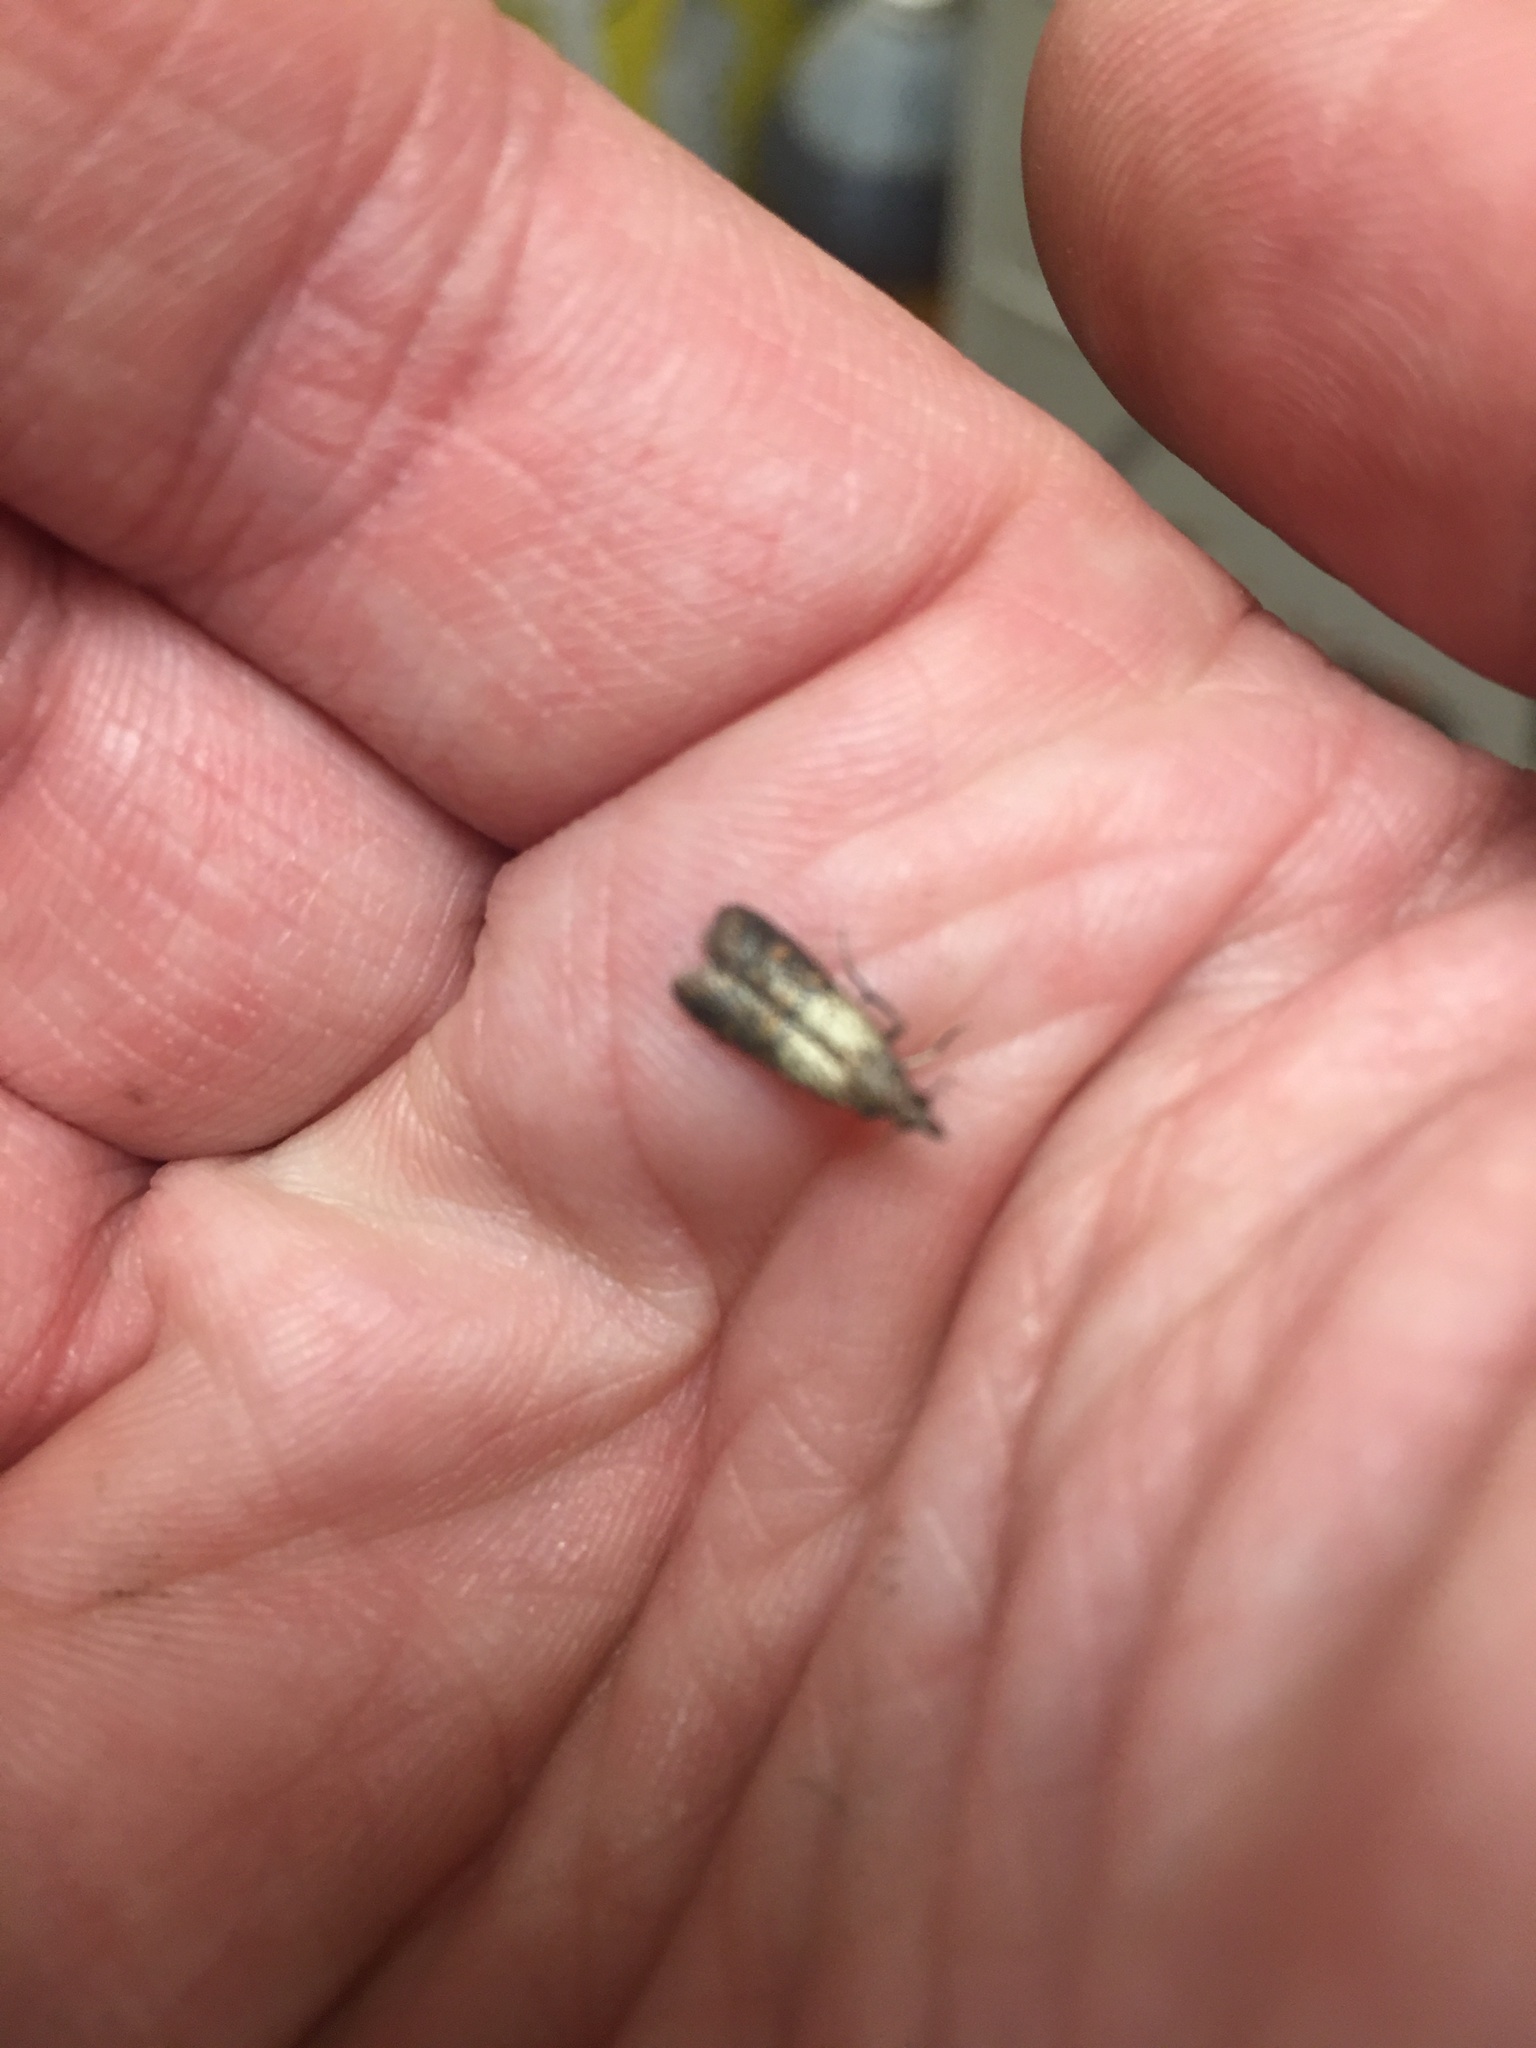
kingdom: Animalia
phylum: Arthropoda
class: Insecta
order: Lepidoptera
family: Pyralidae
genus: Plodia
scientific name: Plodia interpunctella
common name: Indian meal moth
